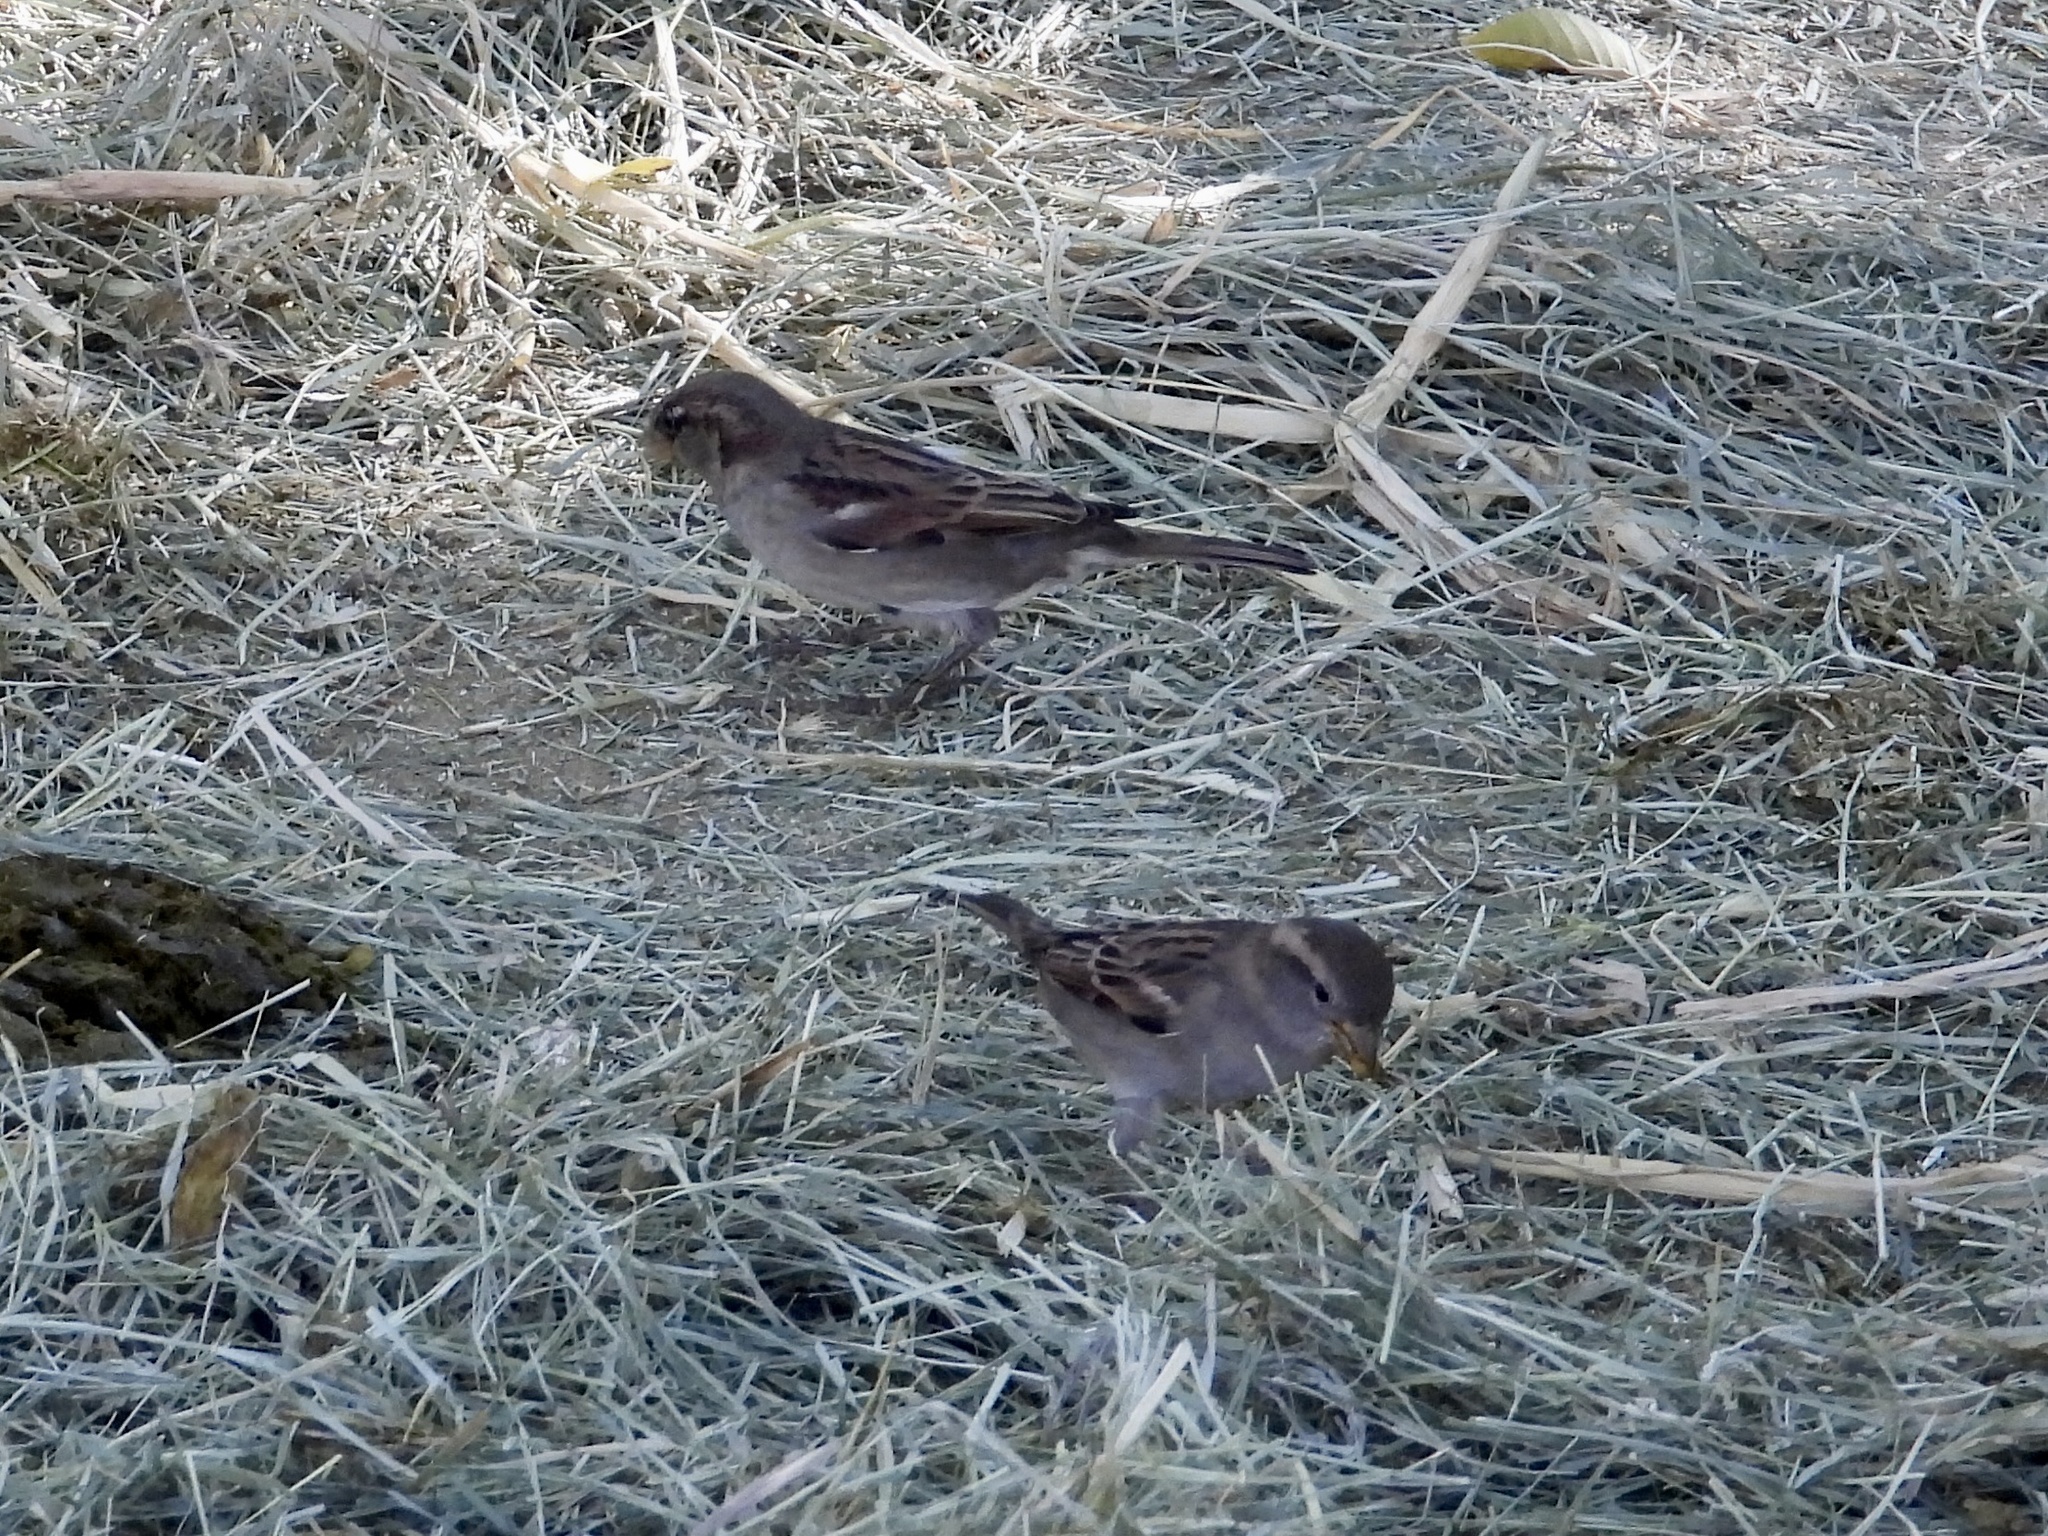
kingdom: Animalia
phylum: Chordata
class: Aves
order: Passeriformes
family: Passeridae
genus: Passer
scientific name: Passer domesticus
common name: House sparrow
